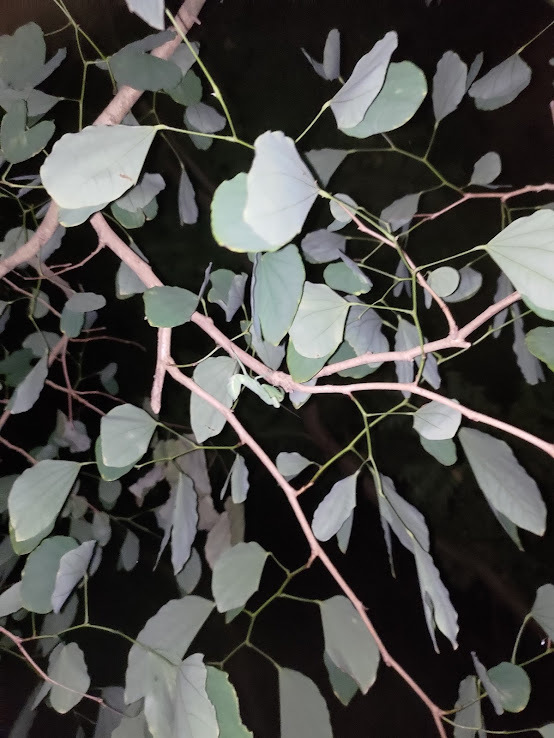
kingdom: Animalia
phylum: Arthropoda
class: Insecta
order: Mantodea
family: Mantidae
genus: Hierodula
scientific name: Hierodula patellifera
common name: Asian mantis
